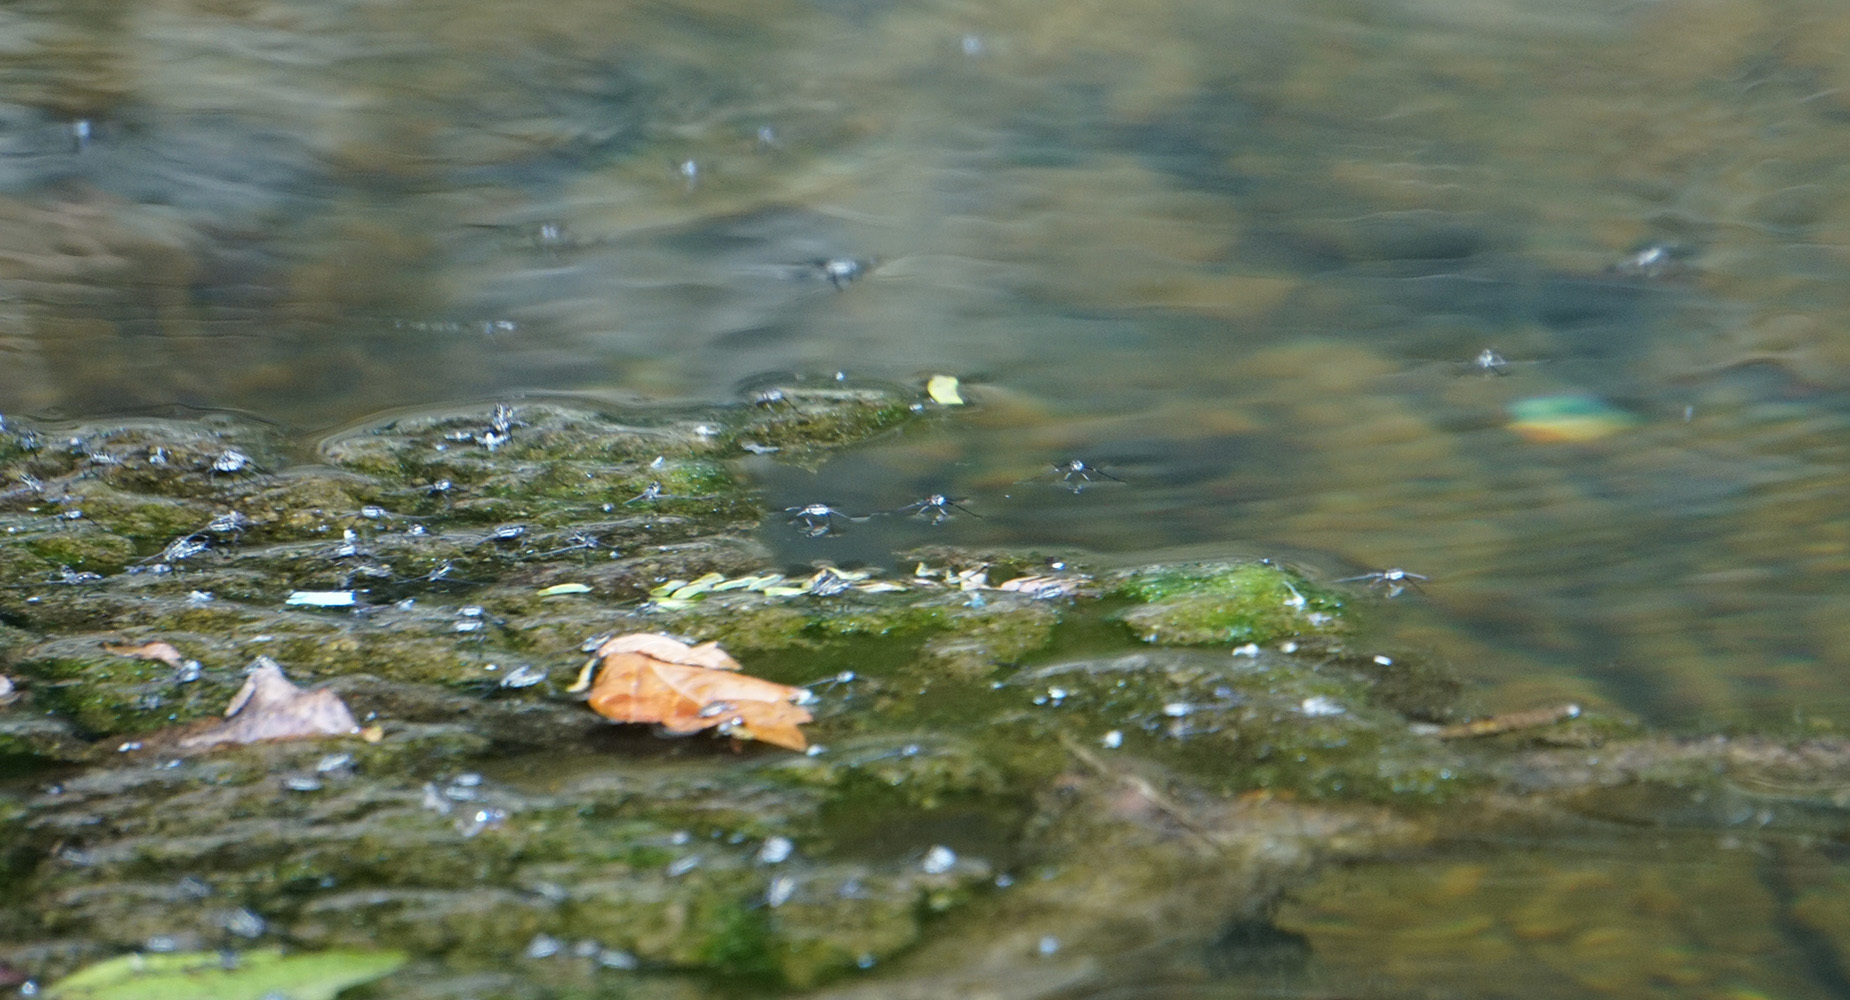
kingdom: Animalia
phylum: Arthropoda
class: Insecta
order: Hemiptera
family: Gerridae
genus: Trepobates
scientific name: Trepobates subnitidus
